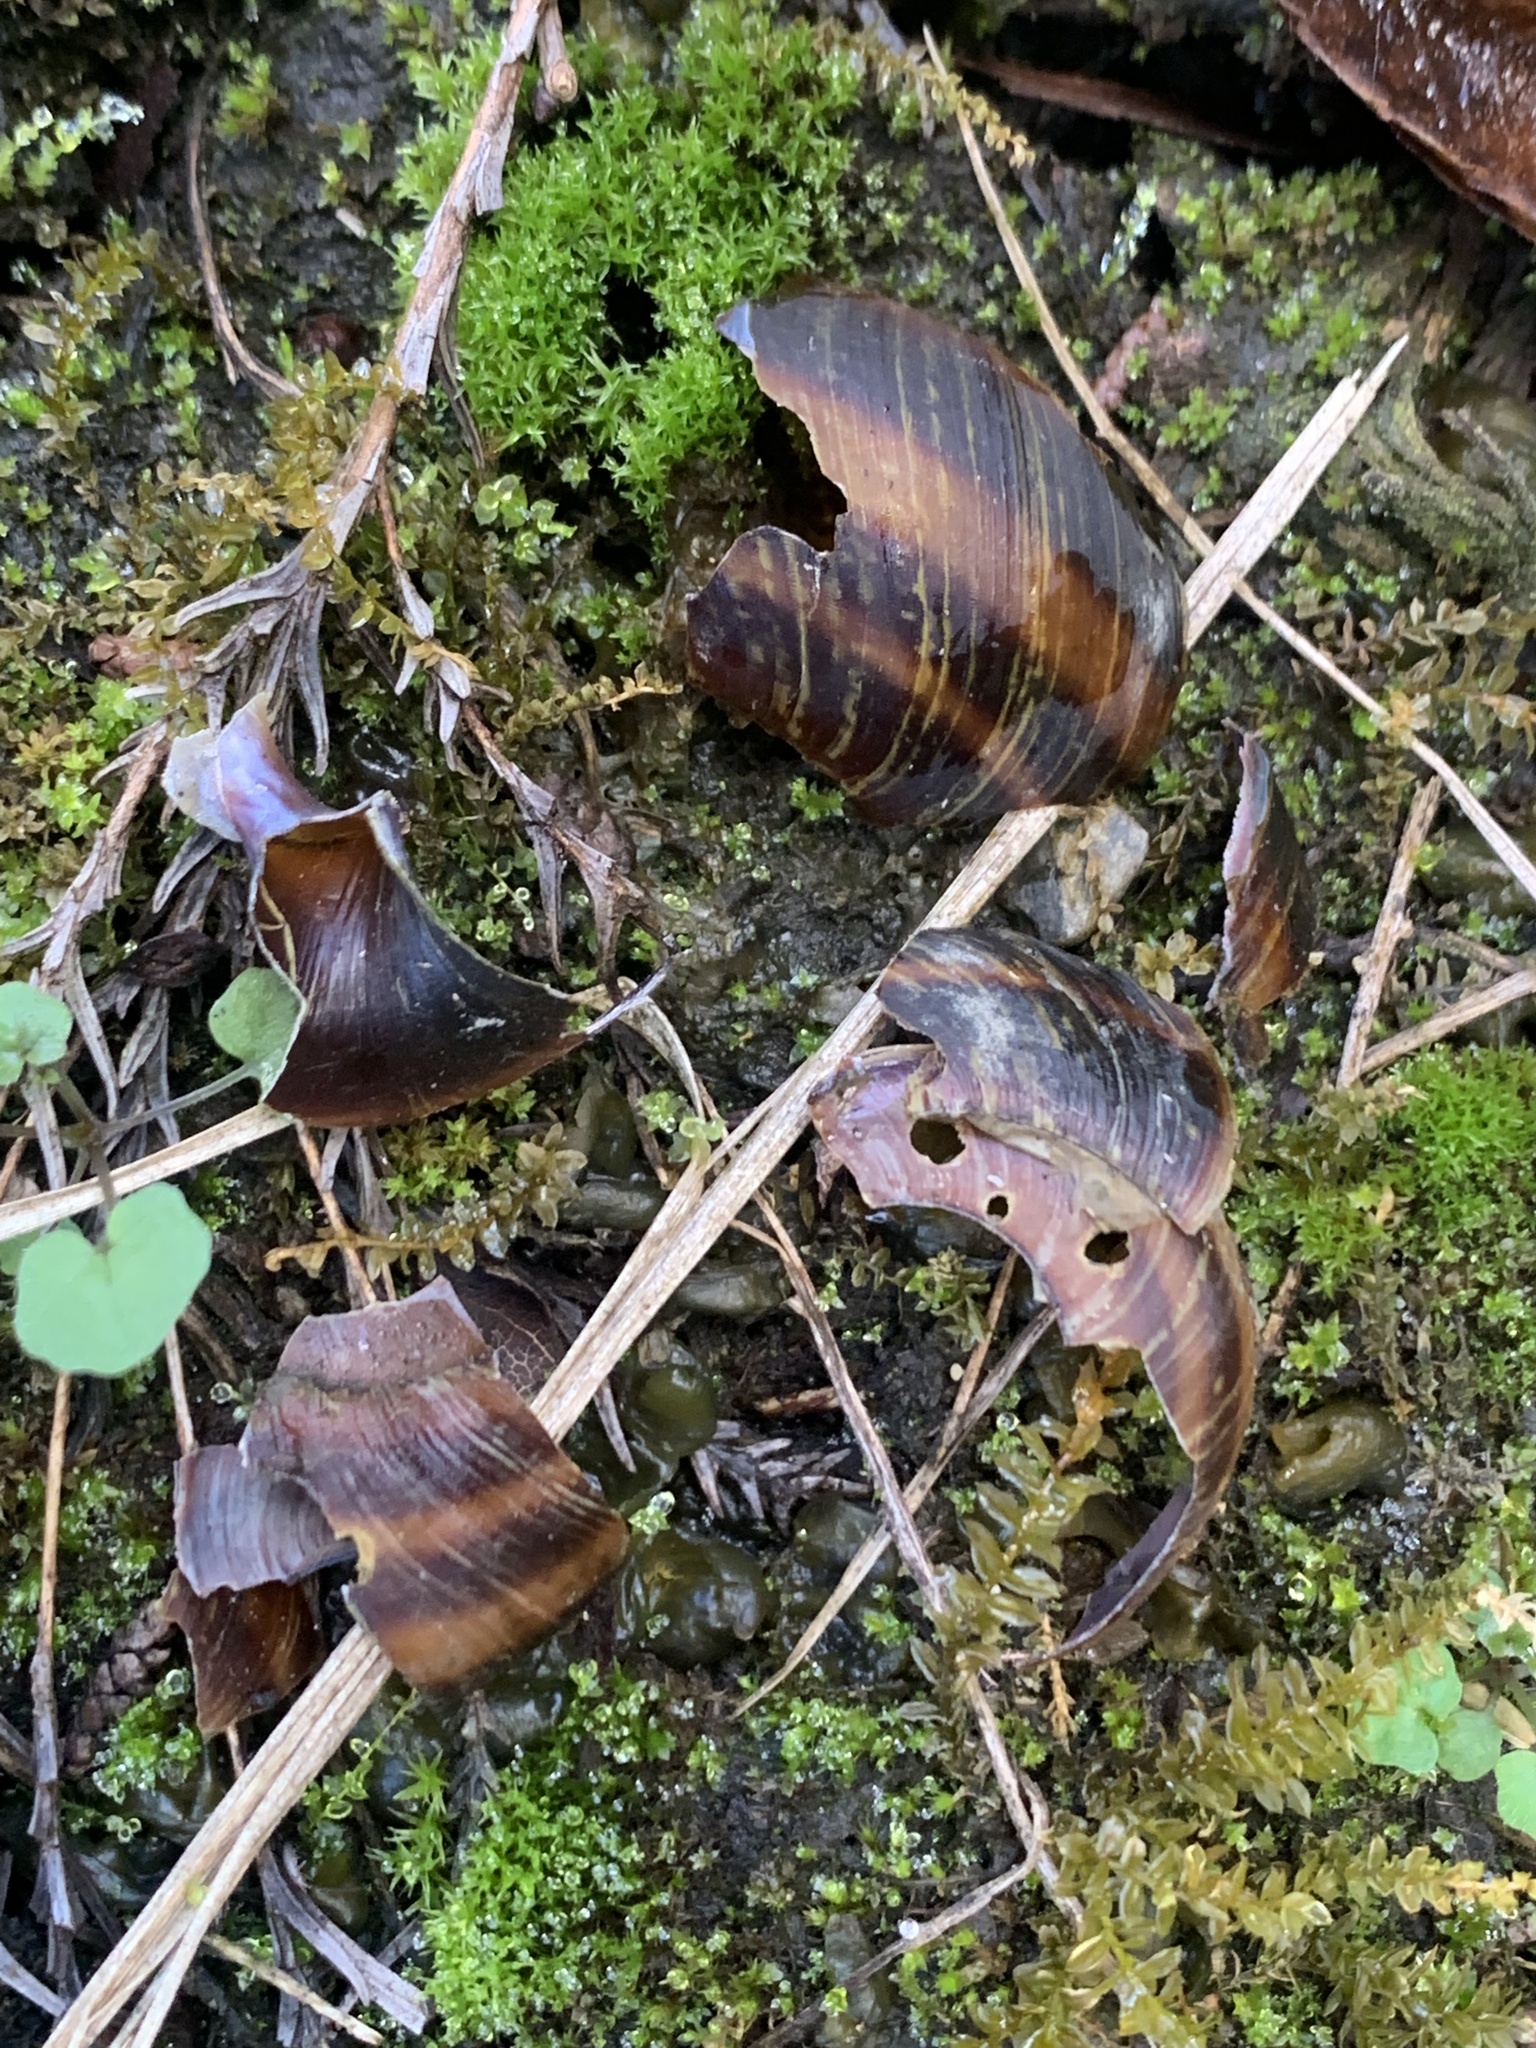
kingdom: Animalia
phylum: Mollusca
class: Gastropoda
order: Stylommatophora
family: Camaenidae
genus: Euhadra
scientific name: Euhadra senckenbergiana
